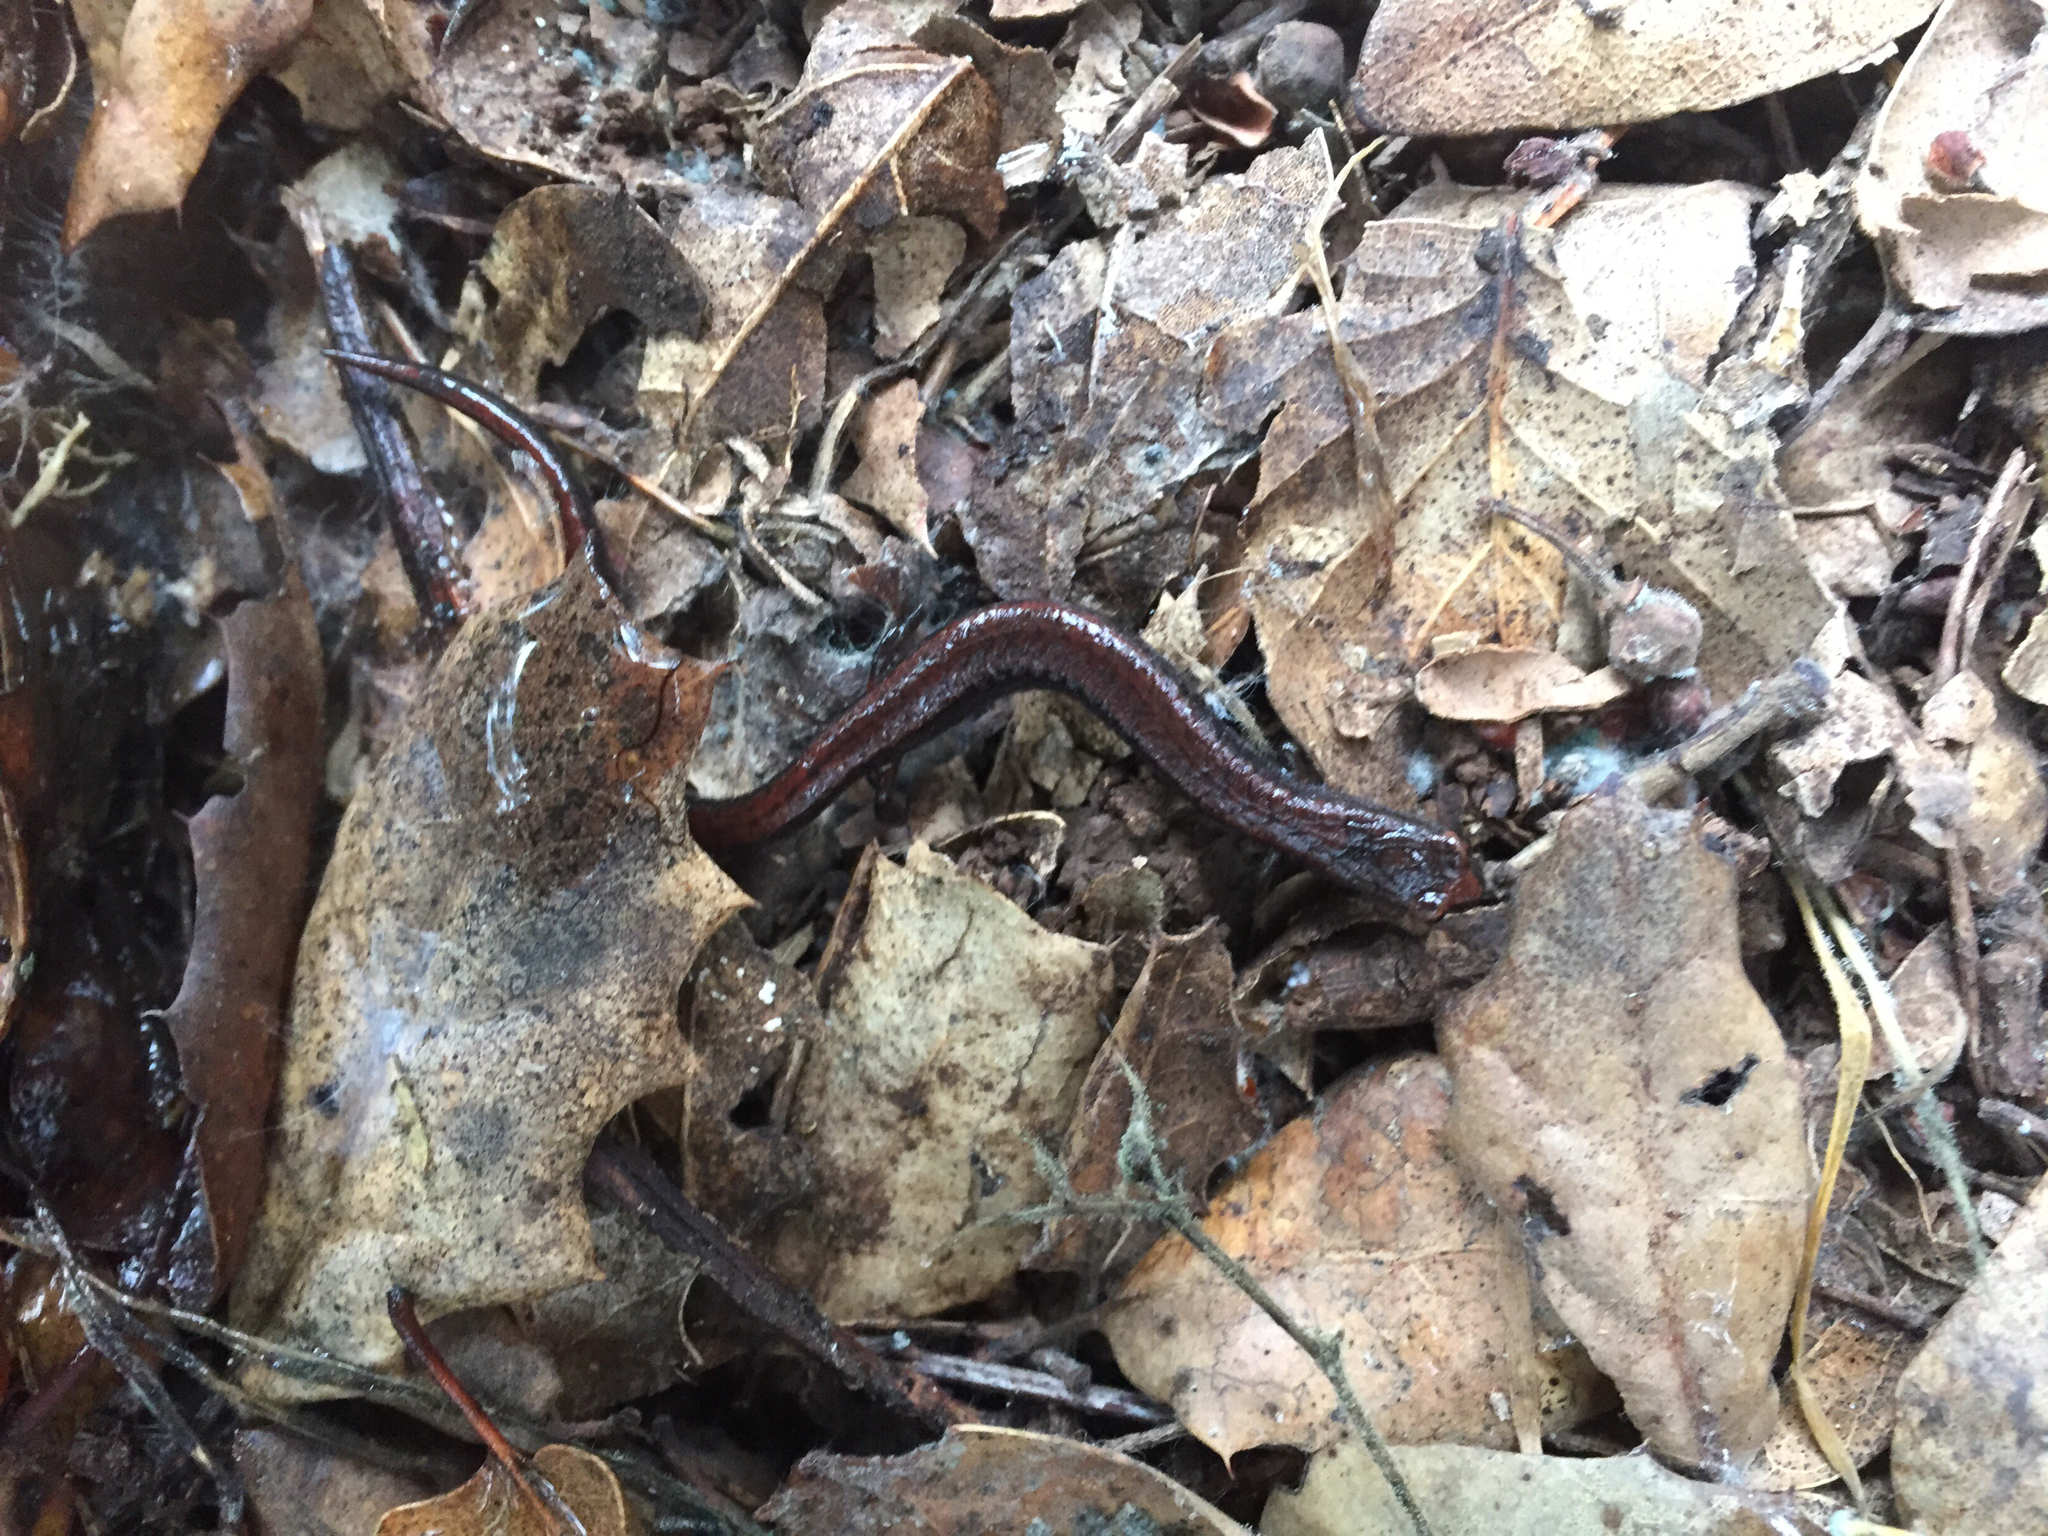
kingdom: Animalia
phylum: Chordata
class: Amphibia
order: Caudata
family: Plethodontidae
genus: Batrachoseps
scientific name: Batrachoseps attenuatus
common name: California slender salamander
